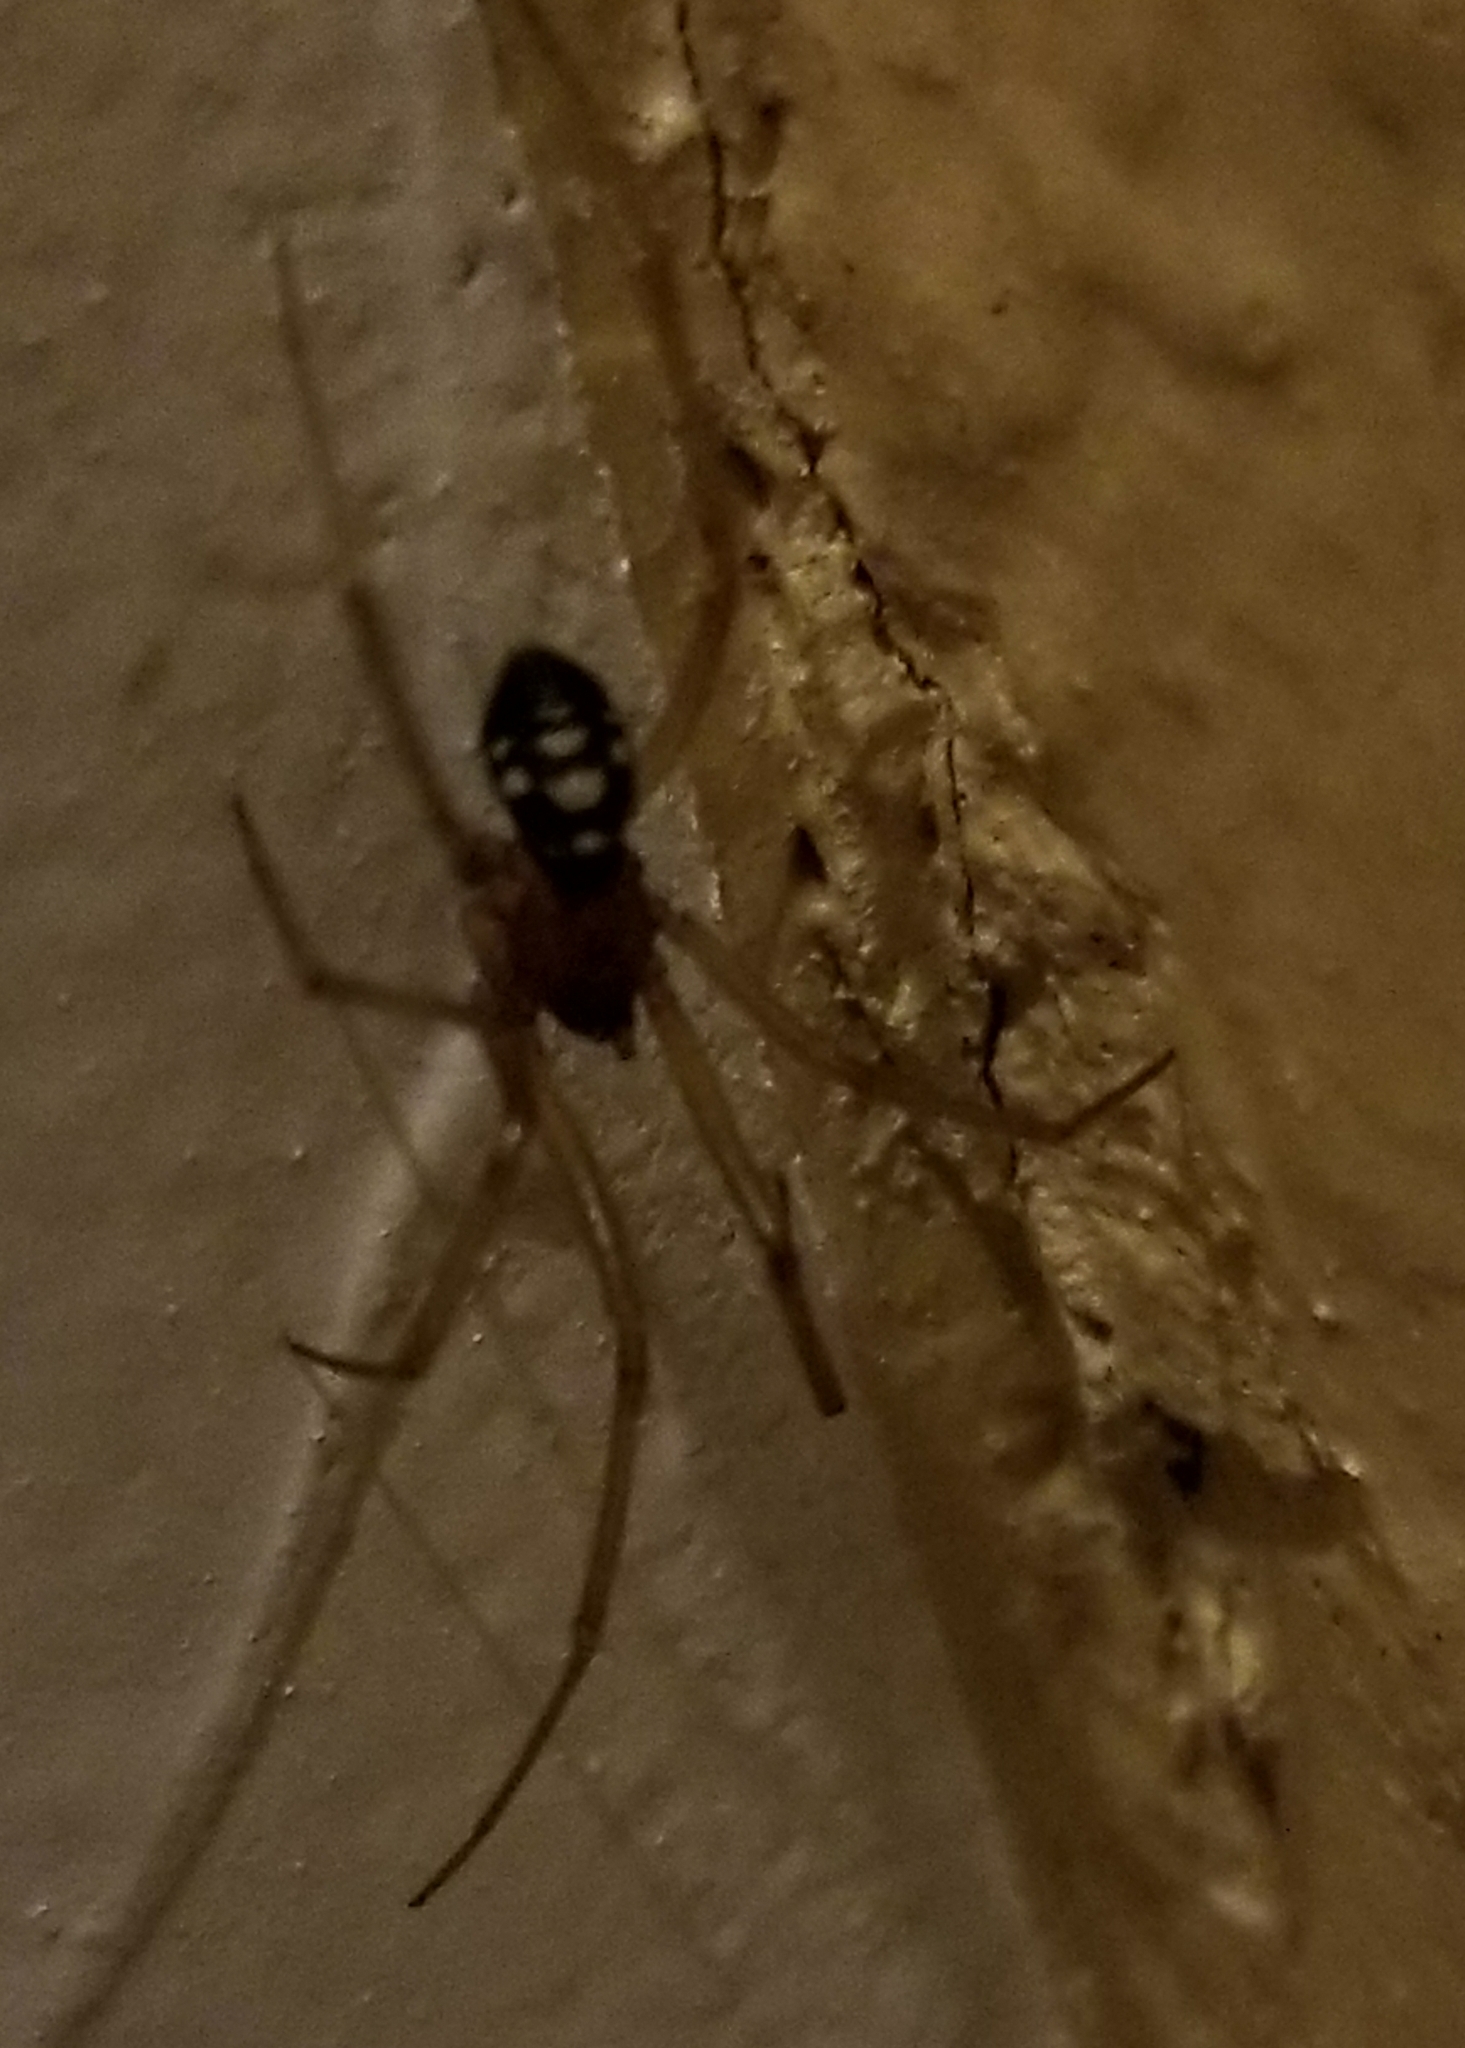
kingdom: Animalia
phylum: Arthropoda
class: Arachnida
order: Araneae
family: Theridiidae
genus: Steatoda
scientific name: Steatoda grossa
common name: False black widow
